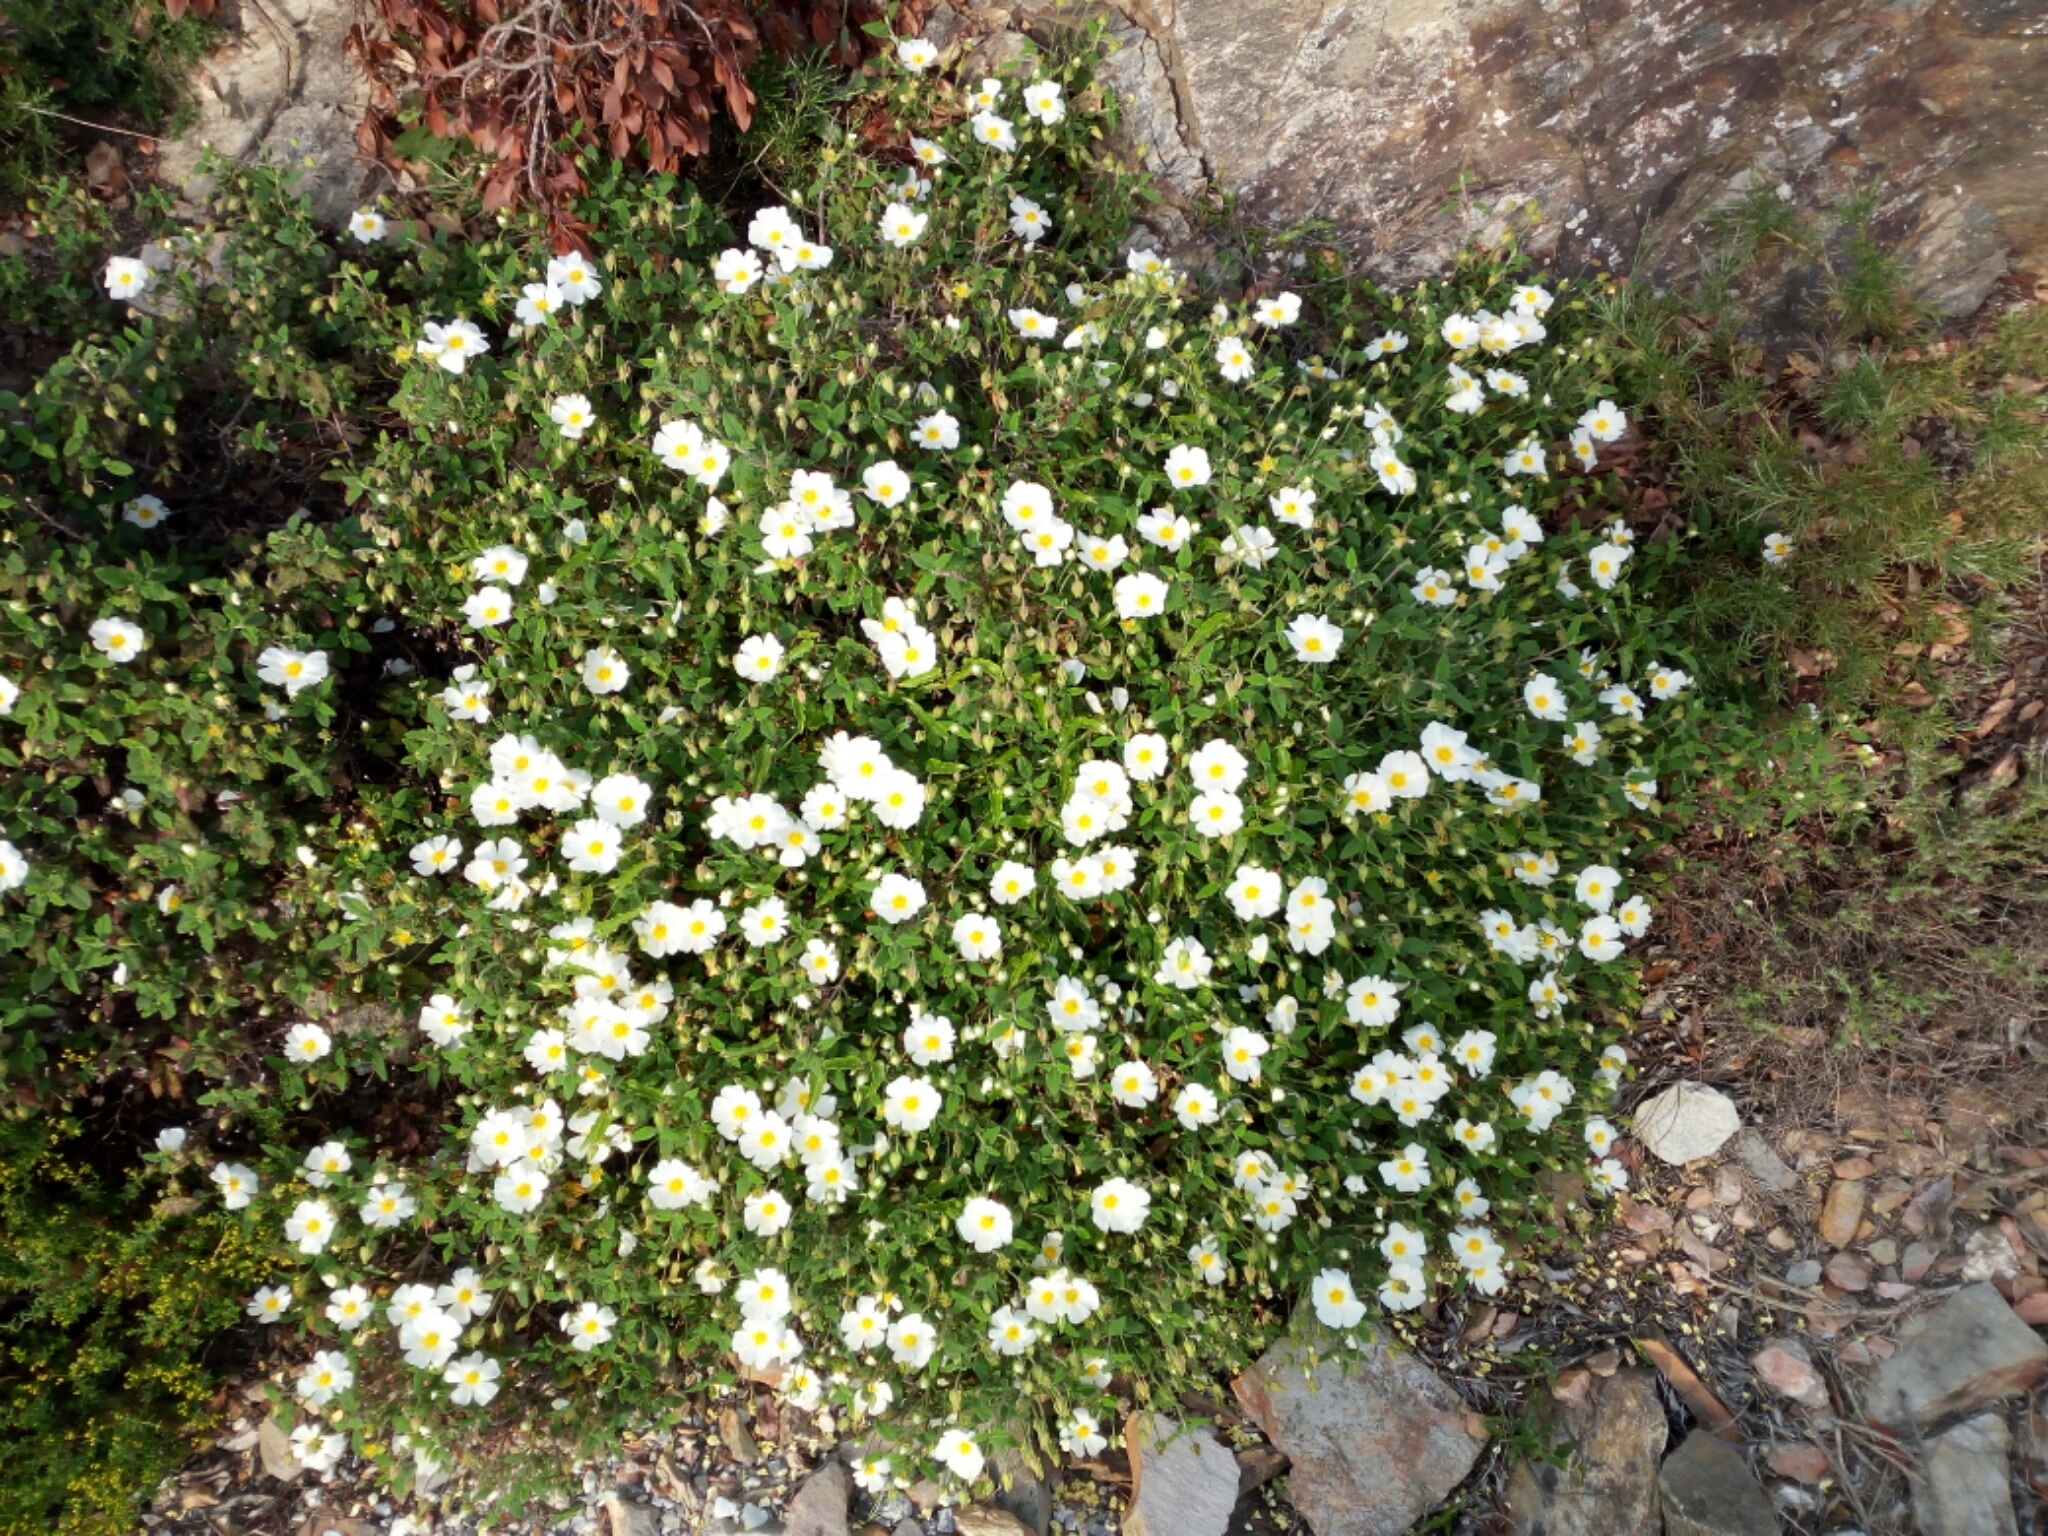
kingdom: Plantae
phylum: Tracheophyta
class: Magnoliopsida
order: Malvales
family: Cistaceae
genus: Cistus
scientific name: Cistus salviifolius
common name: Salvia cistus
